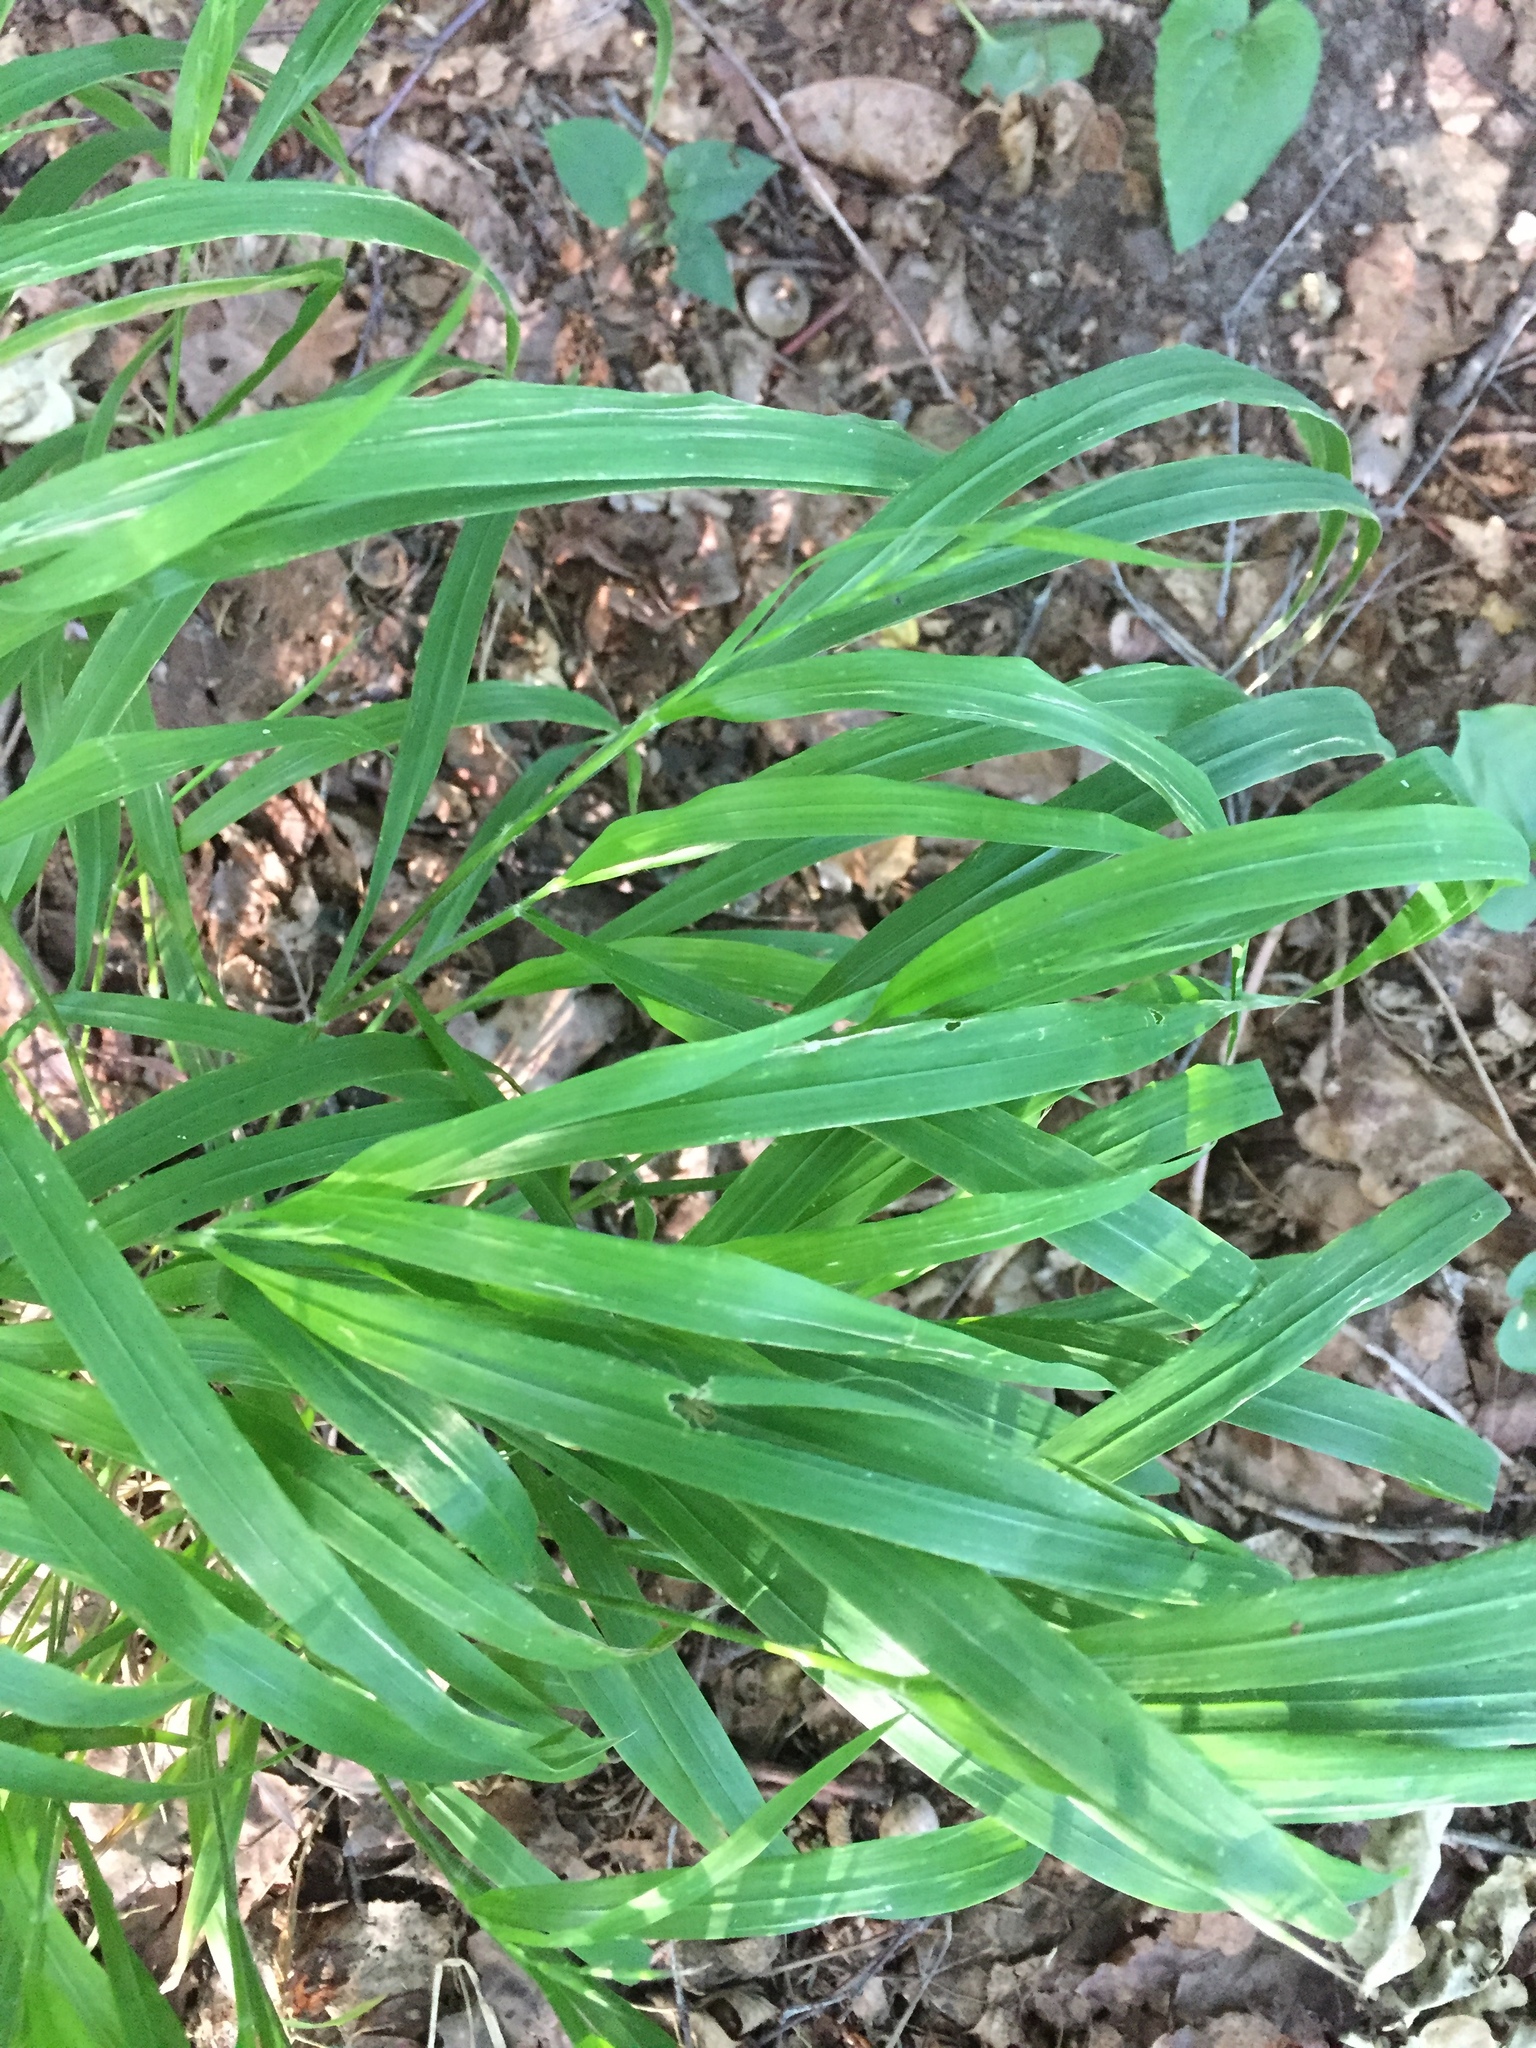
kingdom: Plantae
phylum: Tracheophyta
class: Liliopsida
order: Poales
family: Poaceae
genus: Brachypodium
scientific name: Brachypodium sylvaticum
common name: False-brome
